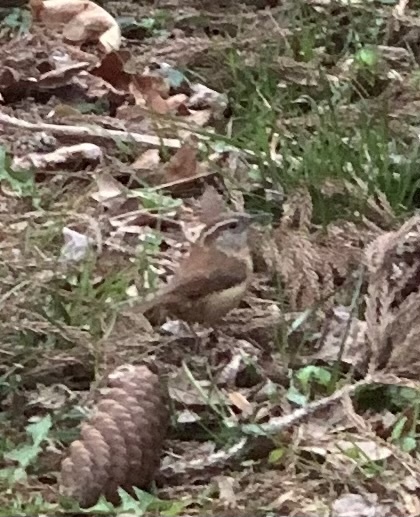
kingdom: Animalia
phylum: Chordata
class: Aves
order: Passeriformes
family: Troglodytidae
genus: Thryothorus
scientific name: Thryothorus ludovicianus
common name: Carolina wren
